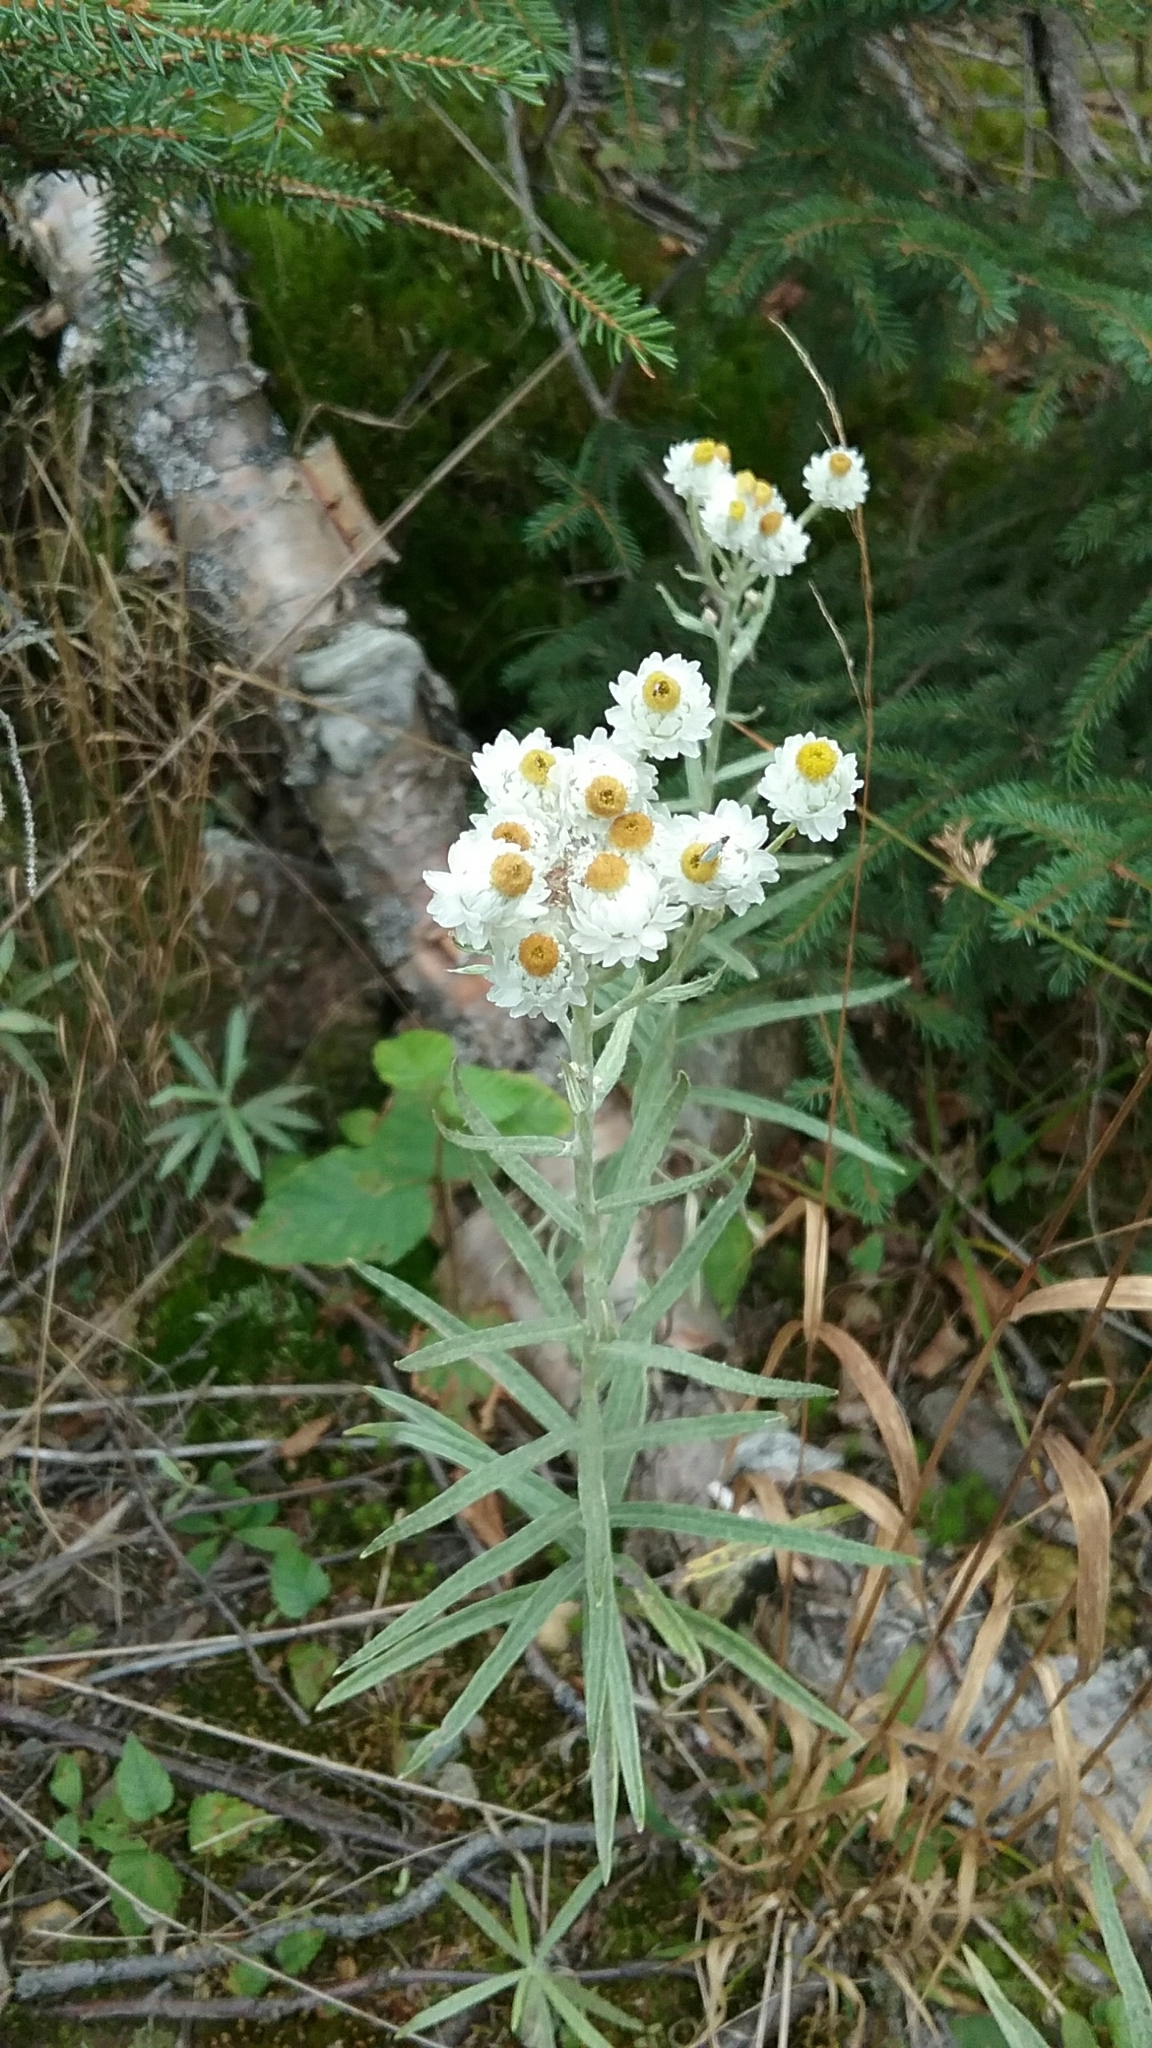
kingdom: Plantae
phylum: Tracheophyta
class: Magnoliopsida
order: Asterales
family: Asteraceae
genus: Anaphalis
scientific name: Anaphalis margaritacea
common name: Pearly everlasting
